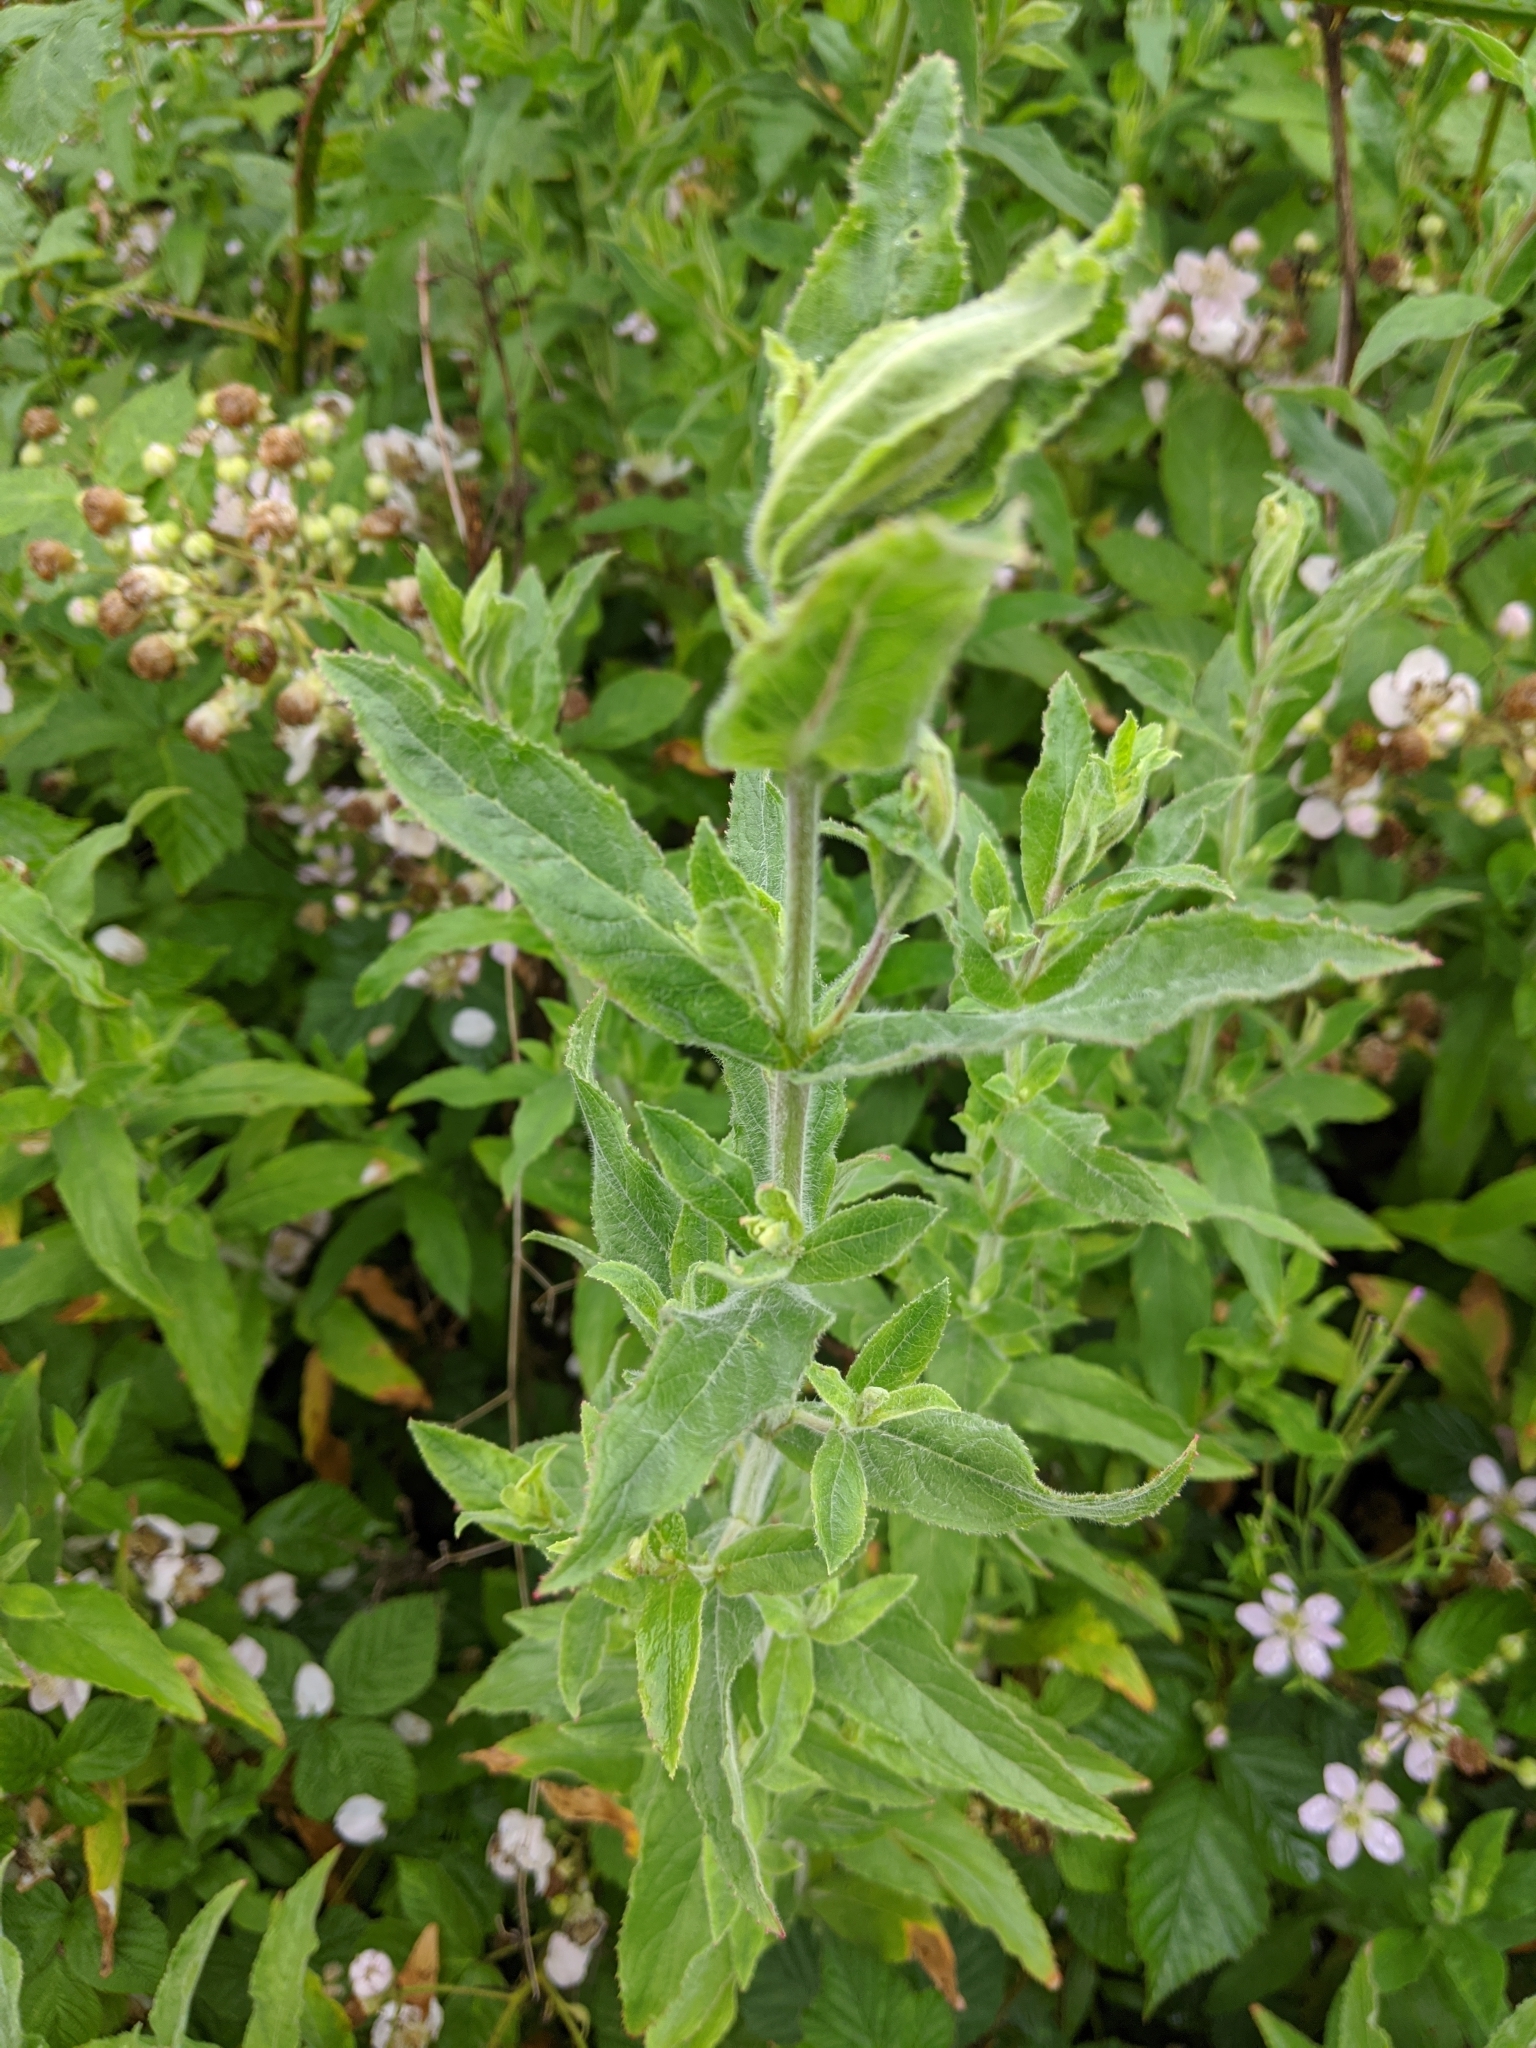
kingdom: Plantae
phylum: Tracheophyta
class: Magnoliopsida
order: Myrtales
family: Onagraceae
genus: Epilobium
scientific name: Epilobium hirsutum
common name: Great willowherb
